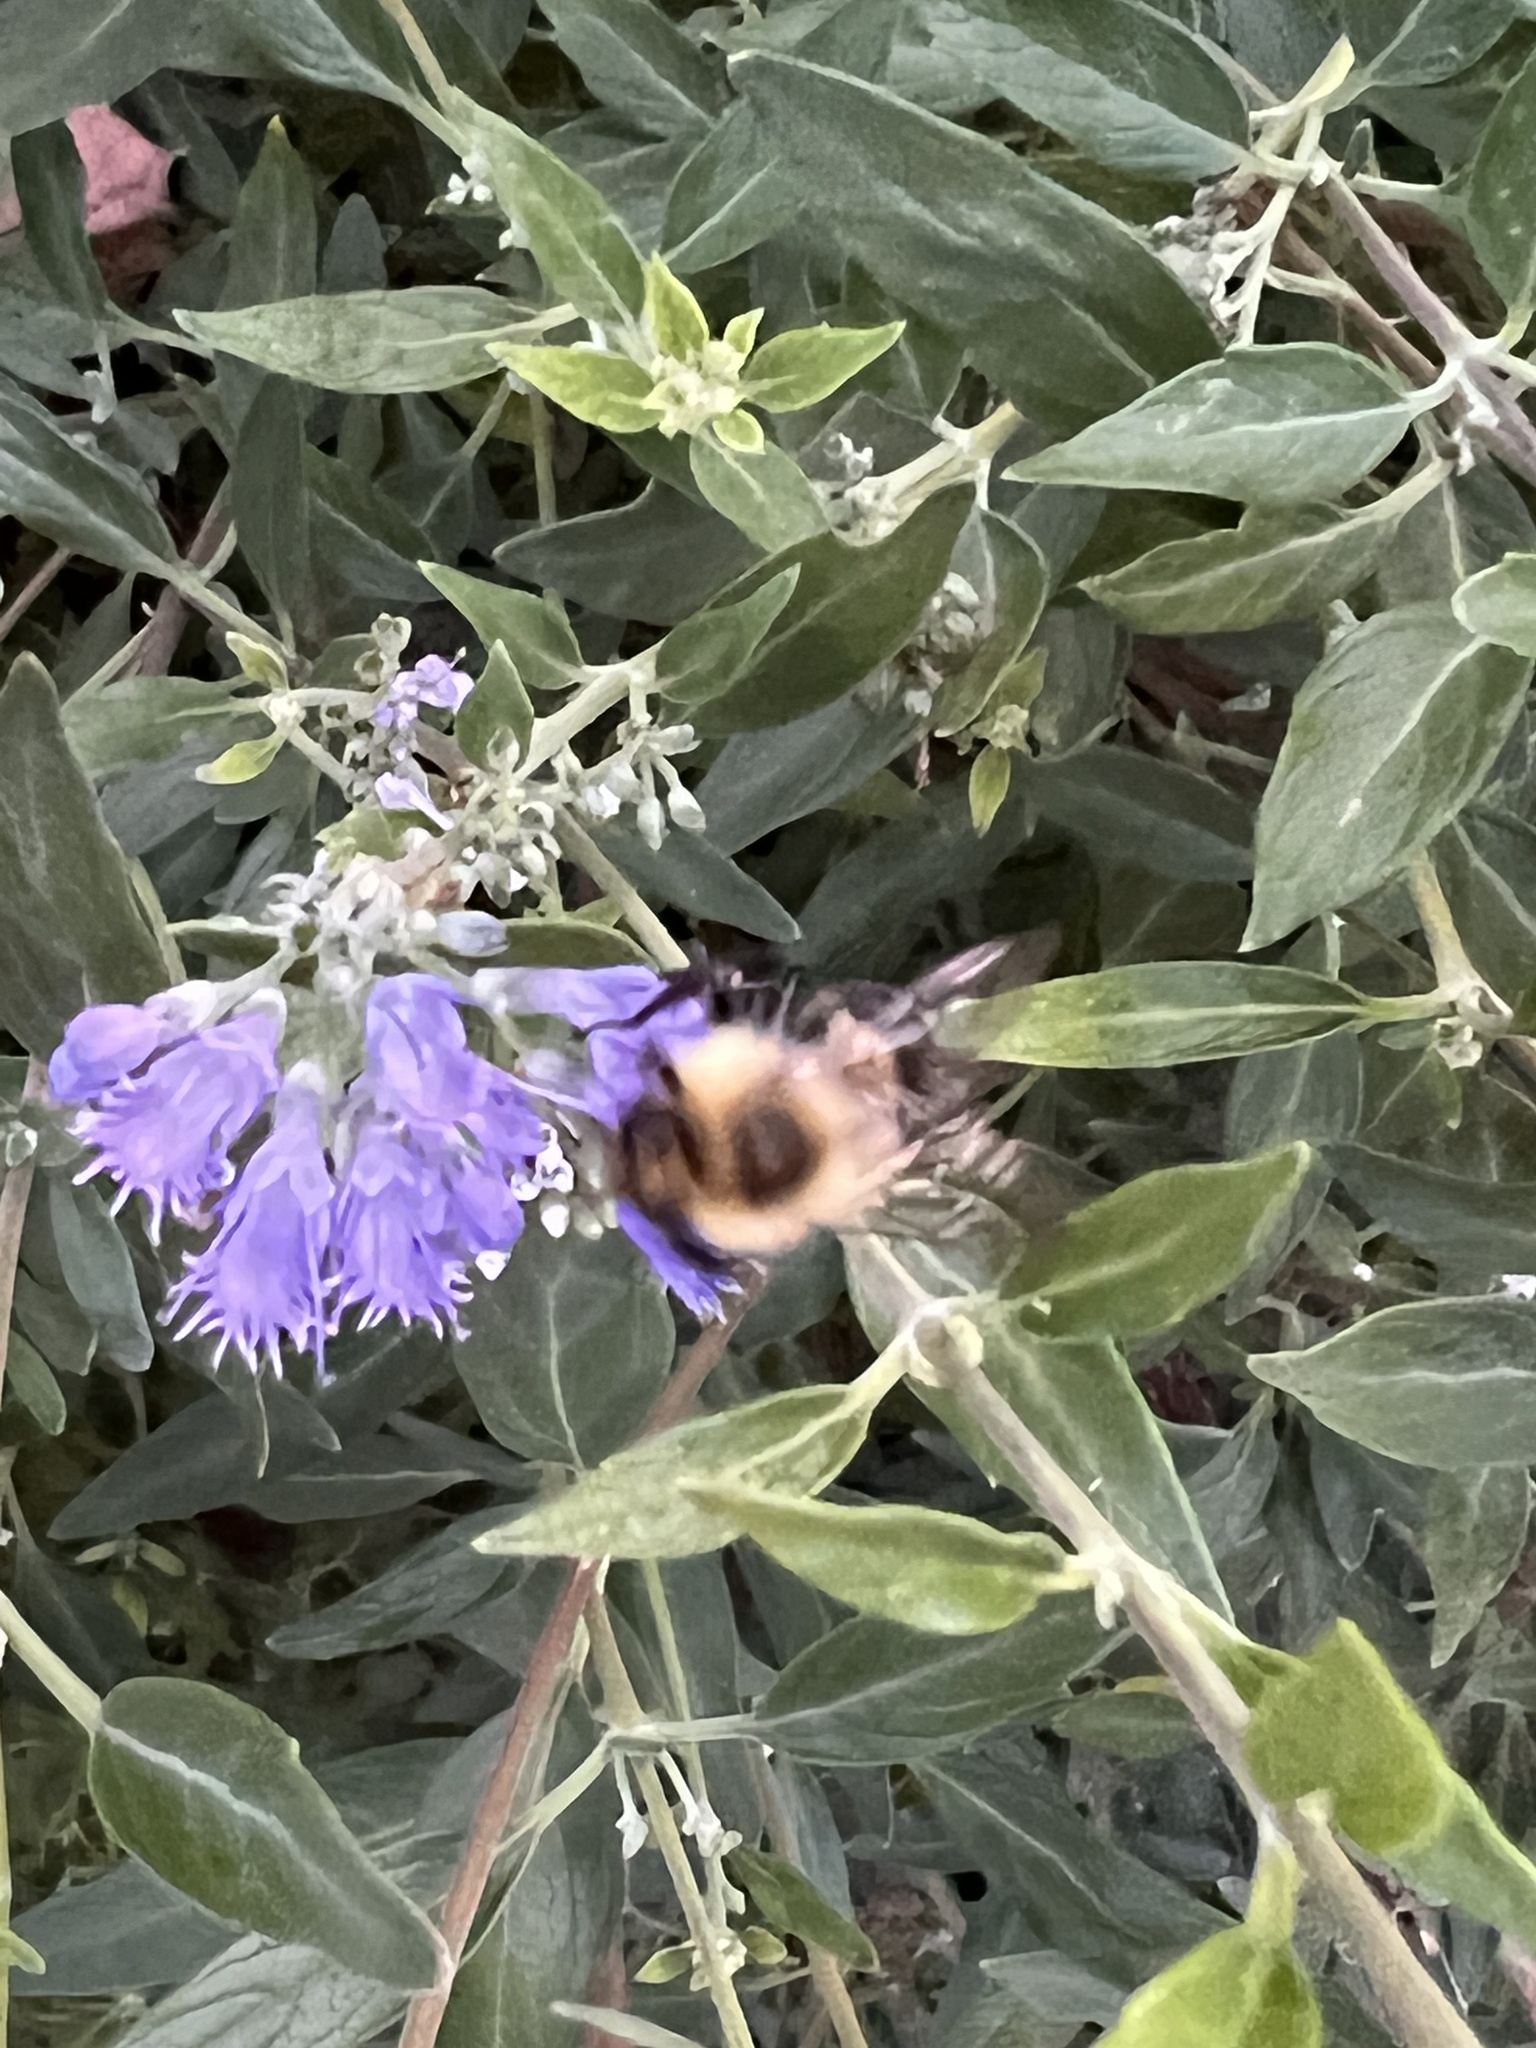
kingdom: Animalia
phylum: Arthropoda
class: Insecta
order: Hymenoptera
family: Apidae
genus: Bombus
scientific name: Bombus impatiens
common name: Common eastern bumble bee
